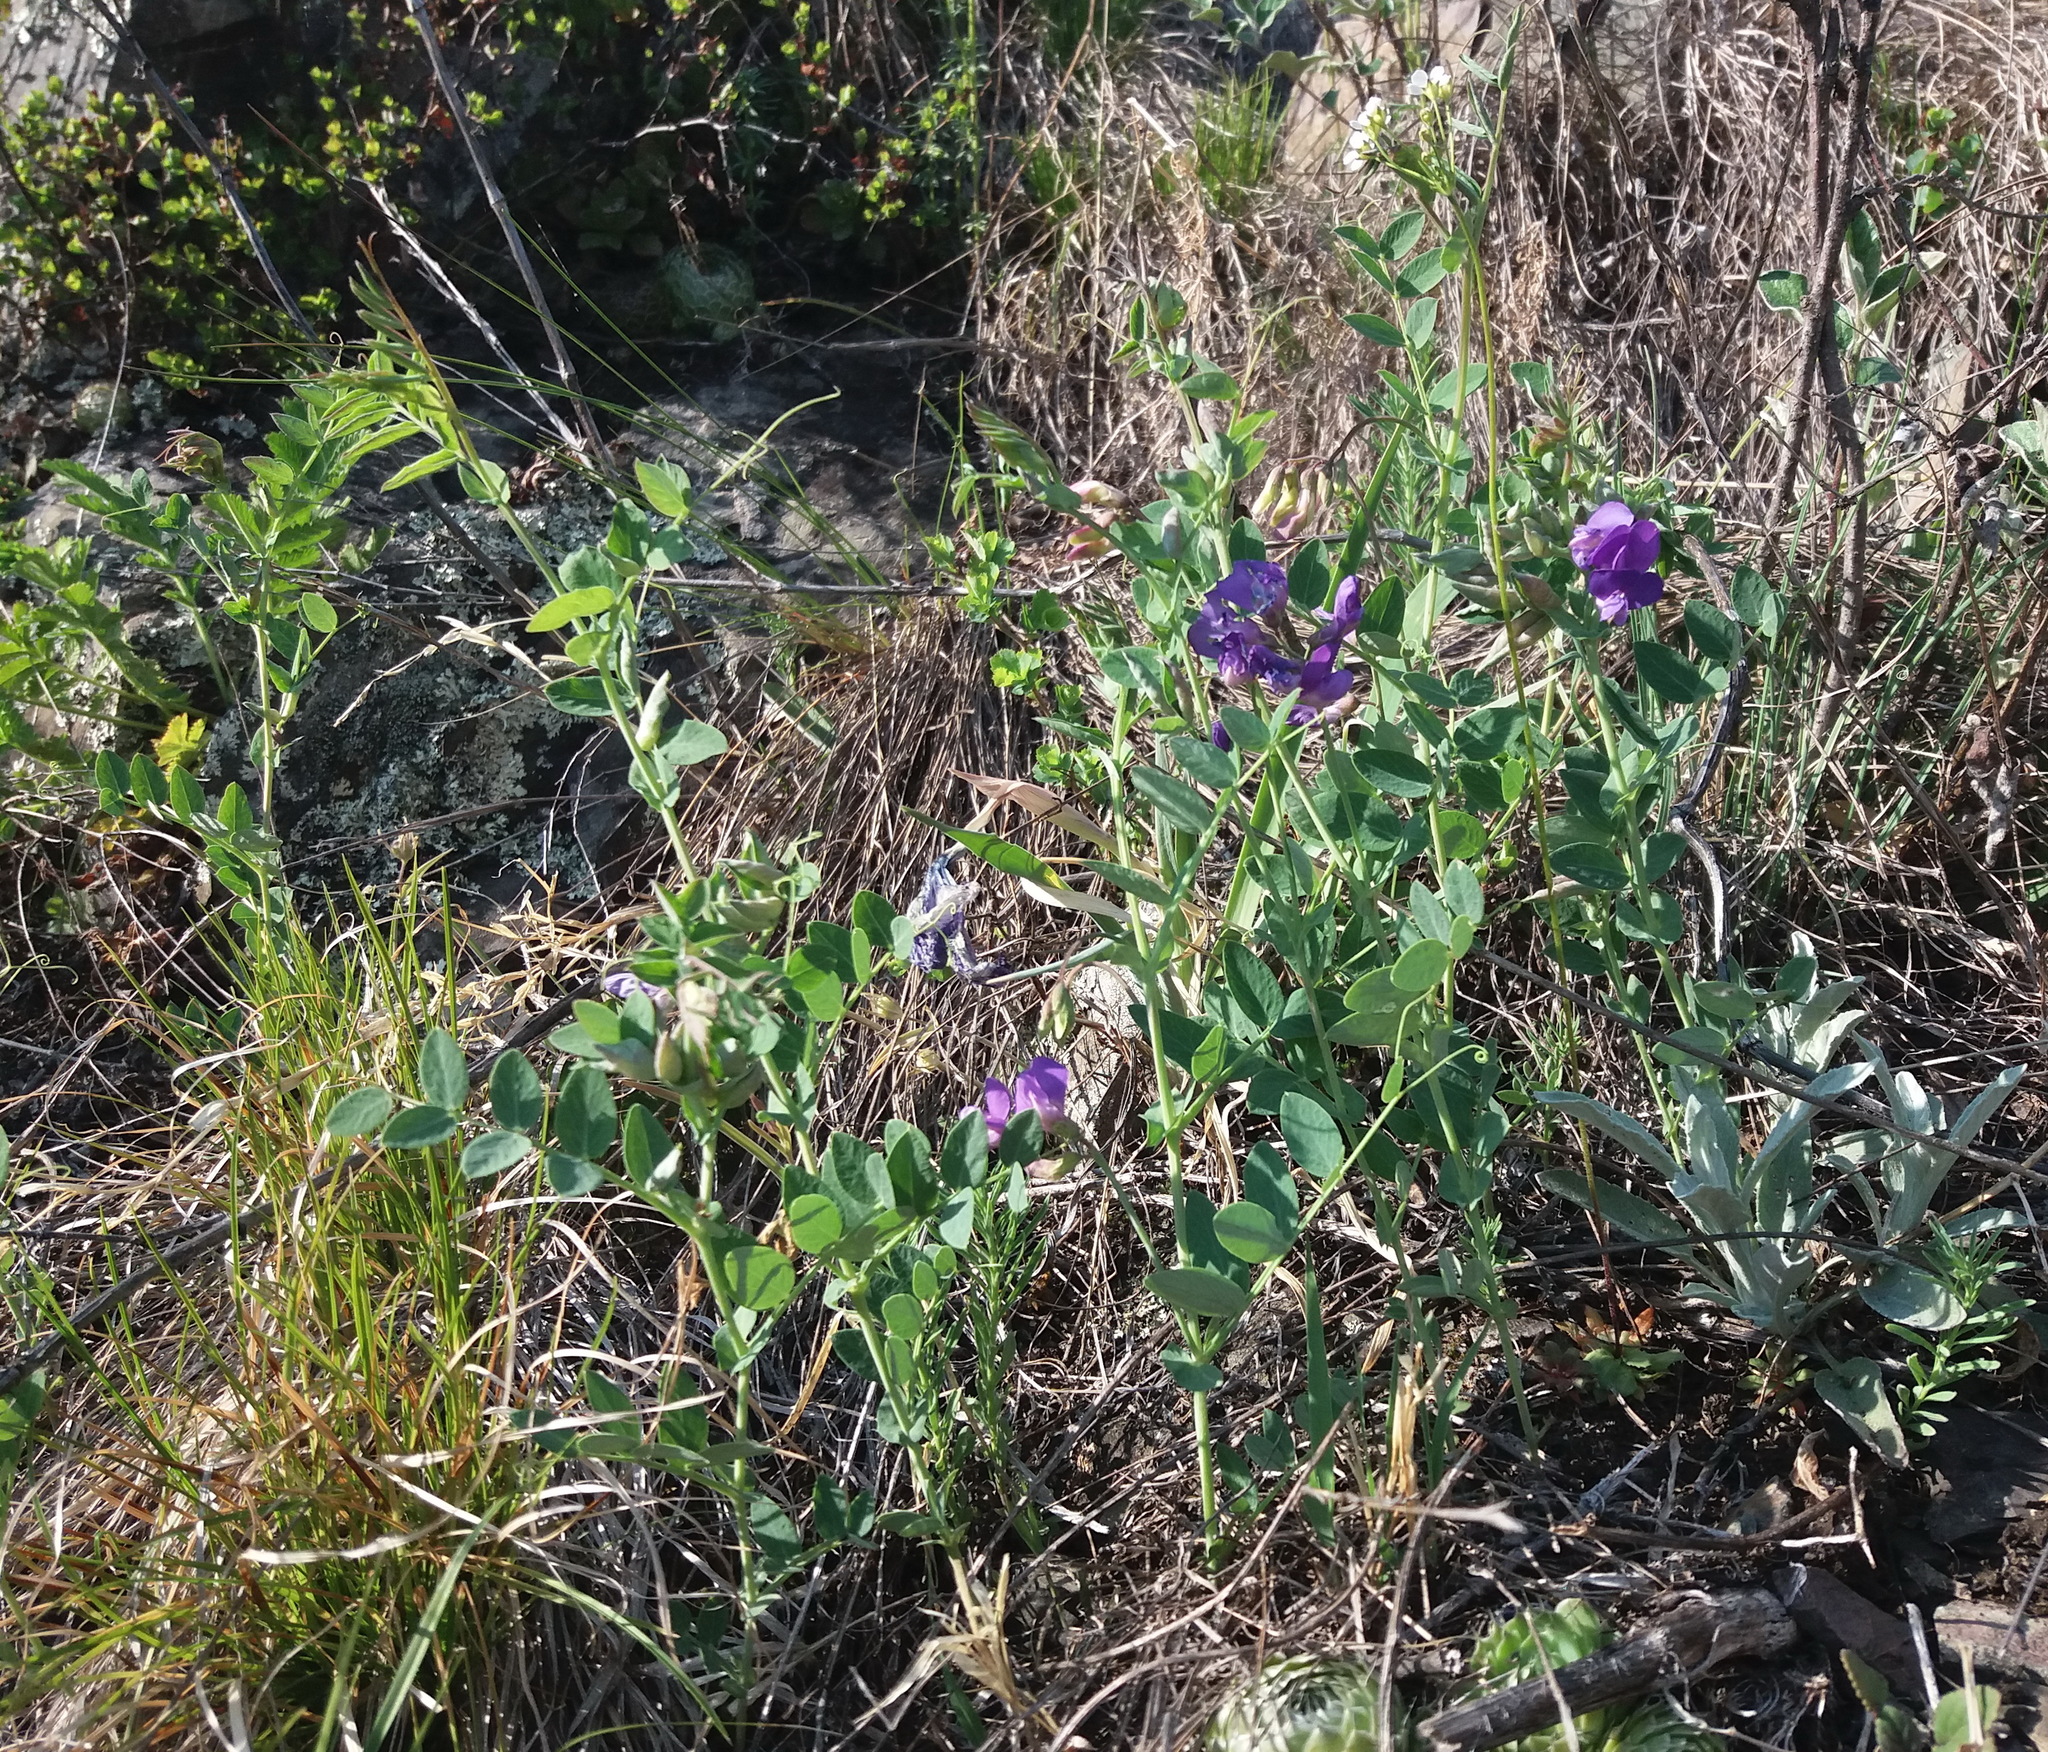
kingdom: Plantae
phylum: Tracheophyta
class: Magnoliopsida
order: Fabales
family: Fabaceae
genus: Lathyrus
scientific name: Lathyrus humilis
